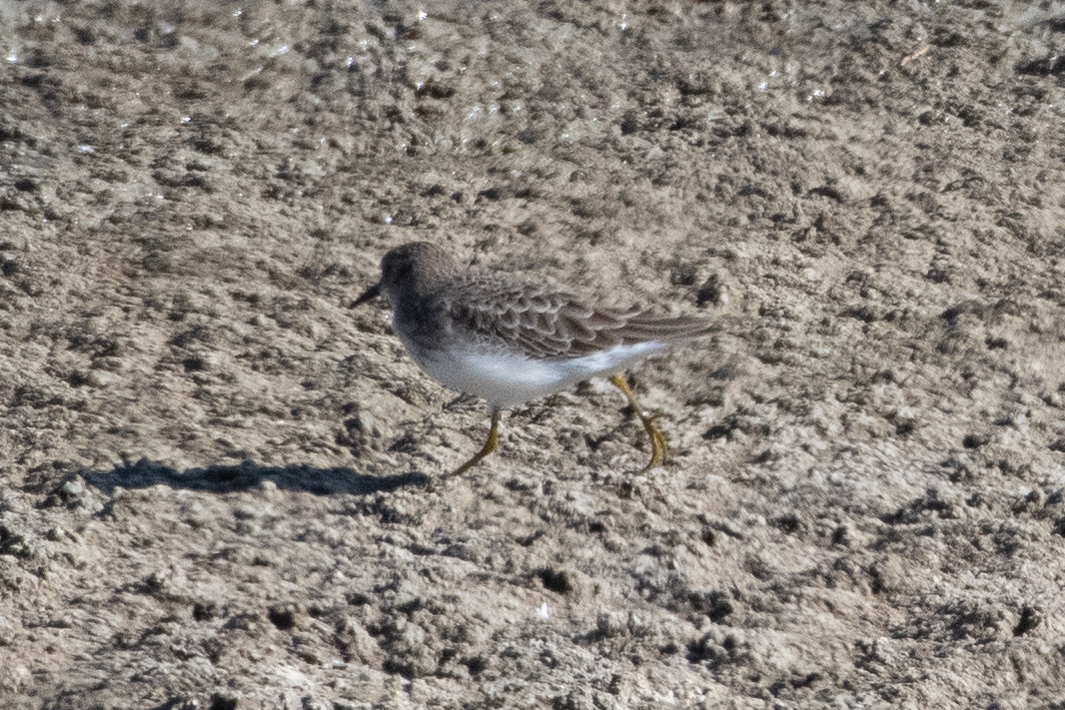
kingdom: Animalia
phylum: Chordata
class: Aves
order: Charadriiformes
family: Scolopacidae
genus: Calidris
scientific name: Calidris minutilla
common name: Least sandpiper
